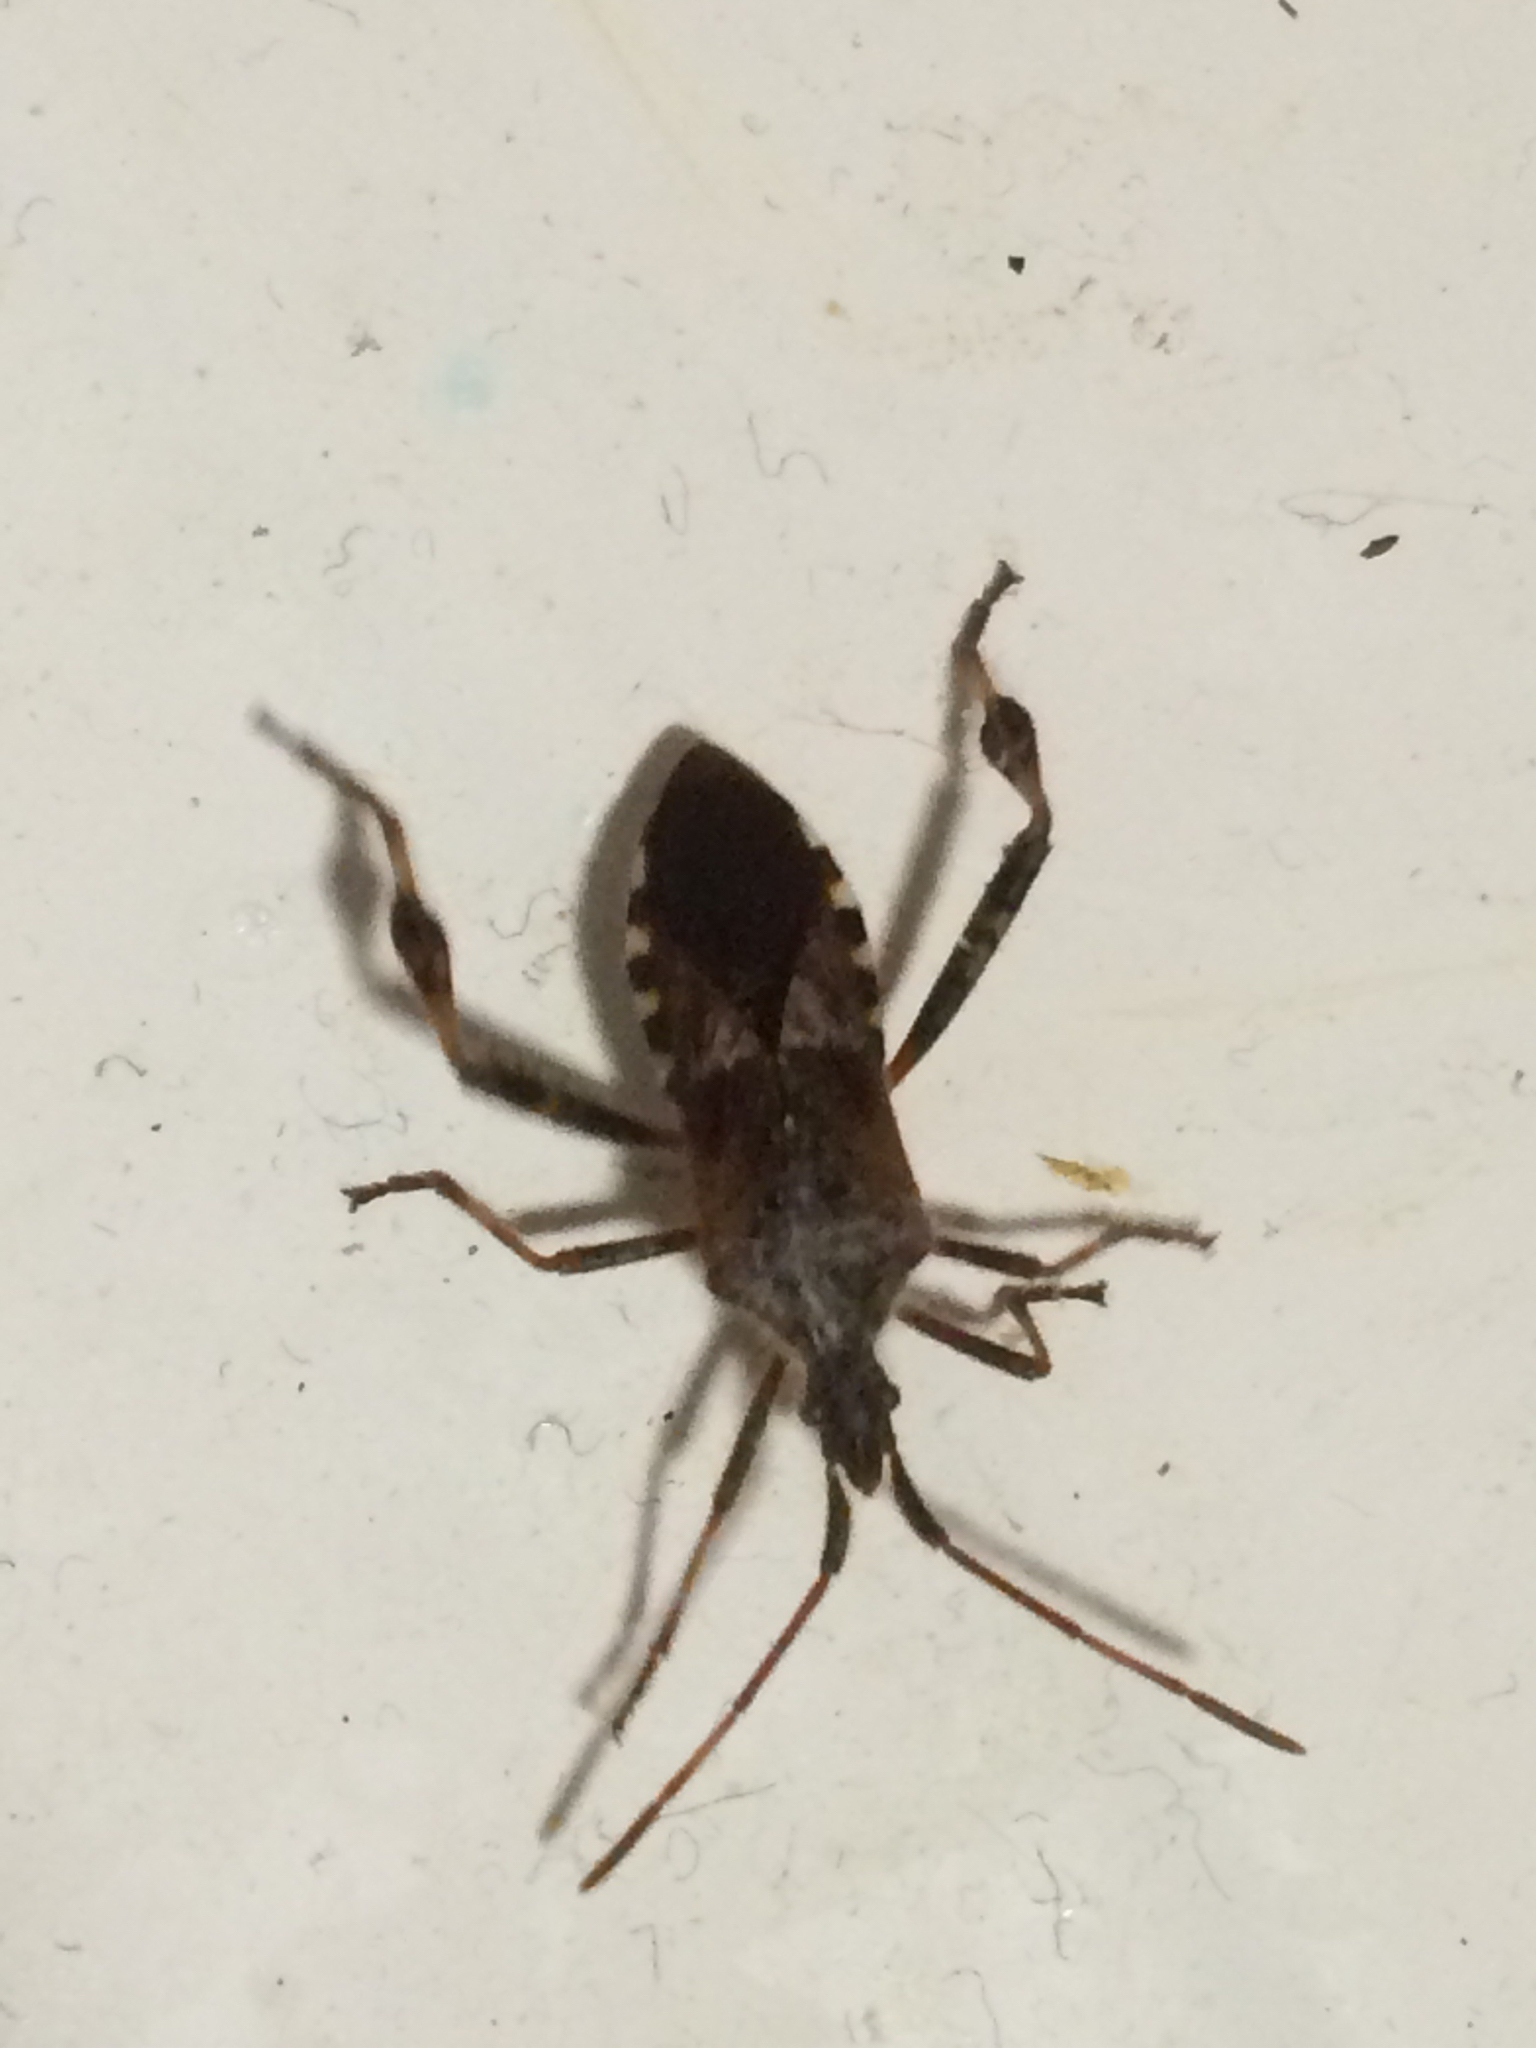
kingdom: Animalia
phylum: Arthropoda
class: Insecta
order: Hemiptera
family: Coreidae
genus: Leptoglossus
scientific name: Leptoglossus occidentalis
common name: Western conifer-seed bug
